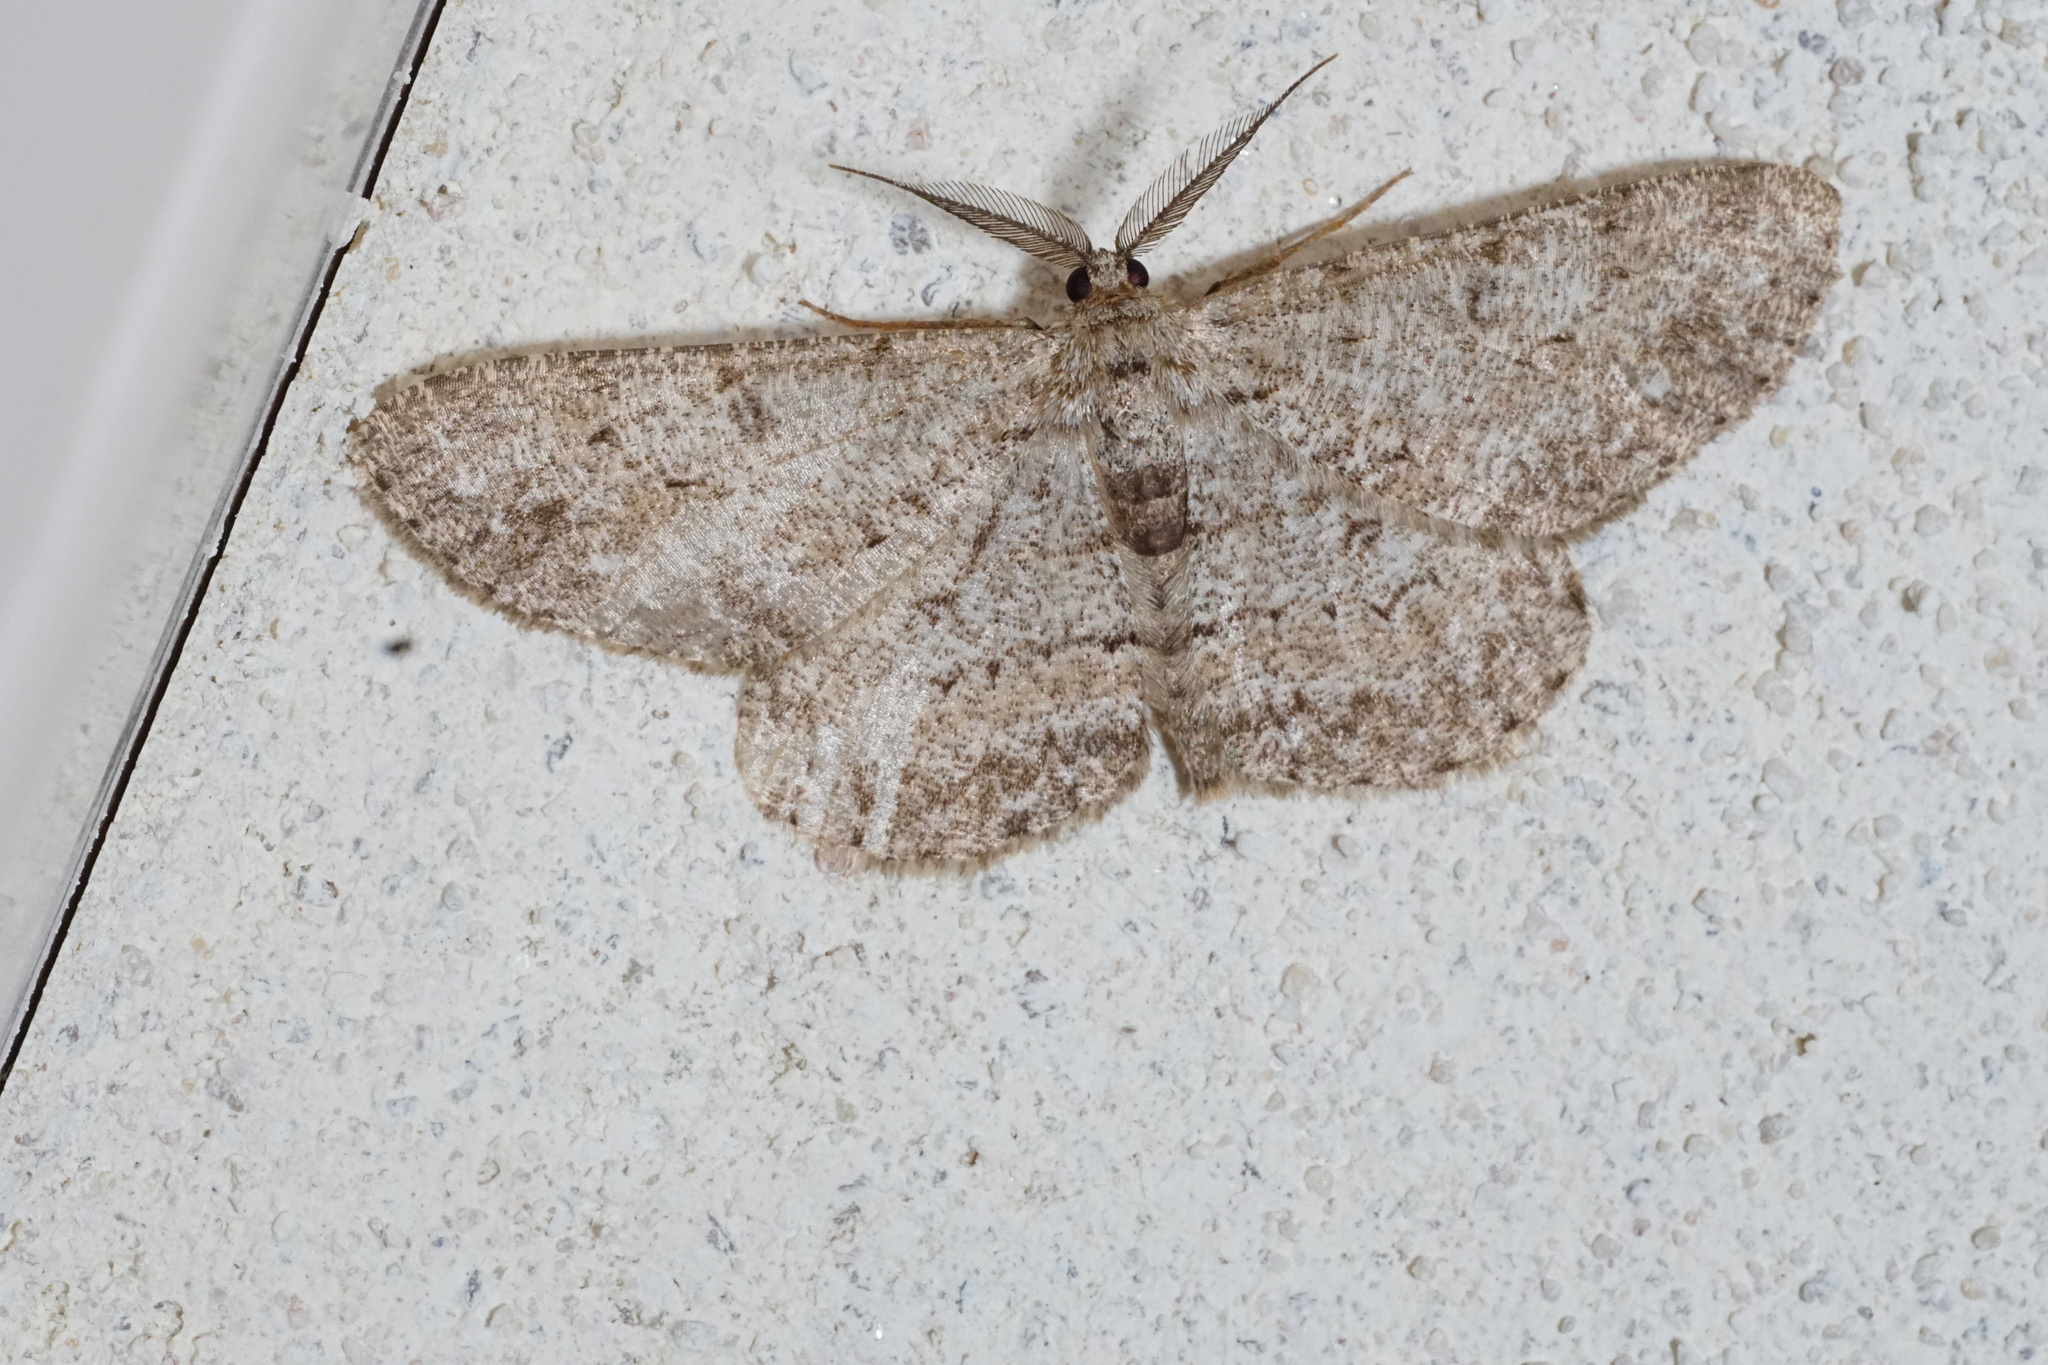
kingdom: Animalia
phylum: Arthropoda
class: Insecta
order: Lepidoptera
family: Geometridae
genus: Hypomecis
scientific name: Hypomecis punctinalis
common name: Pale oak beauty
